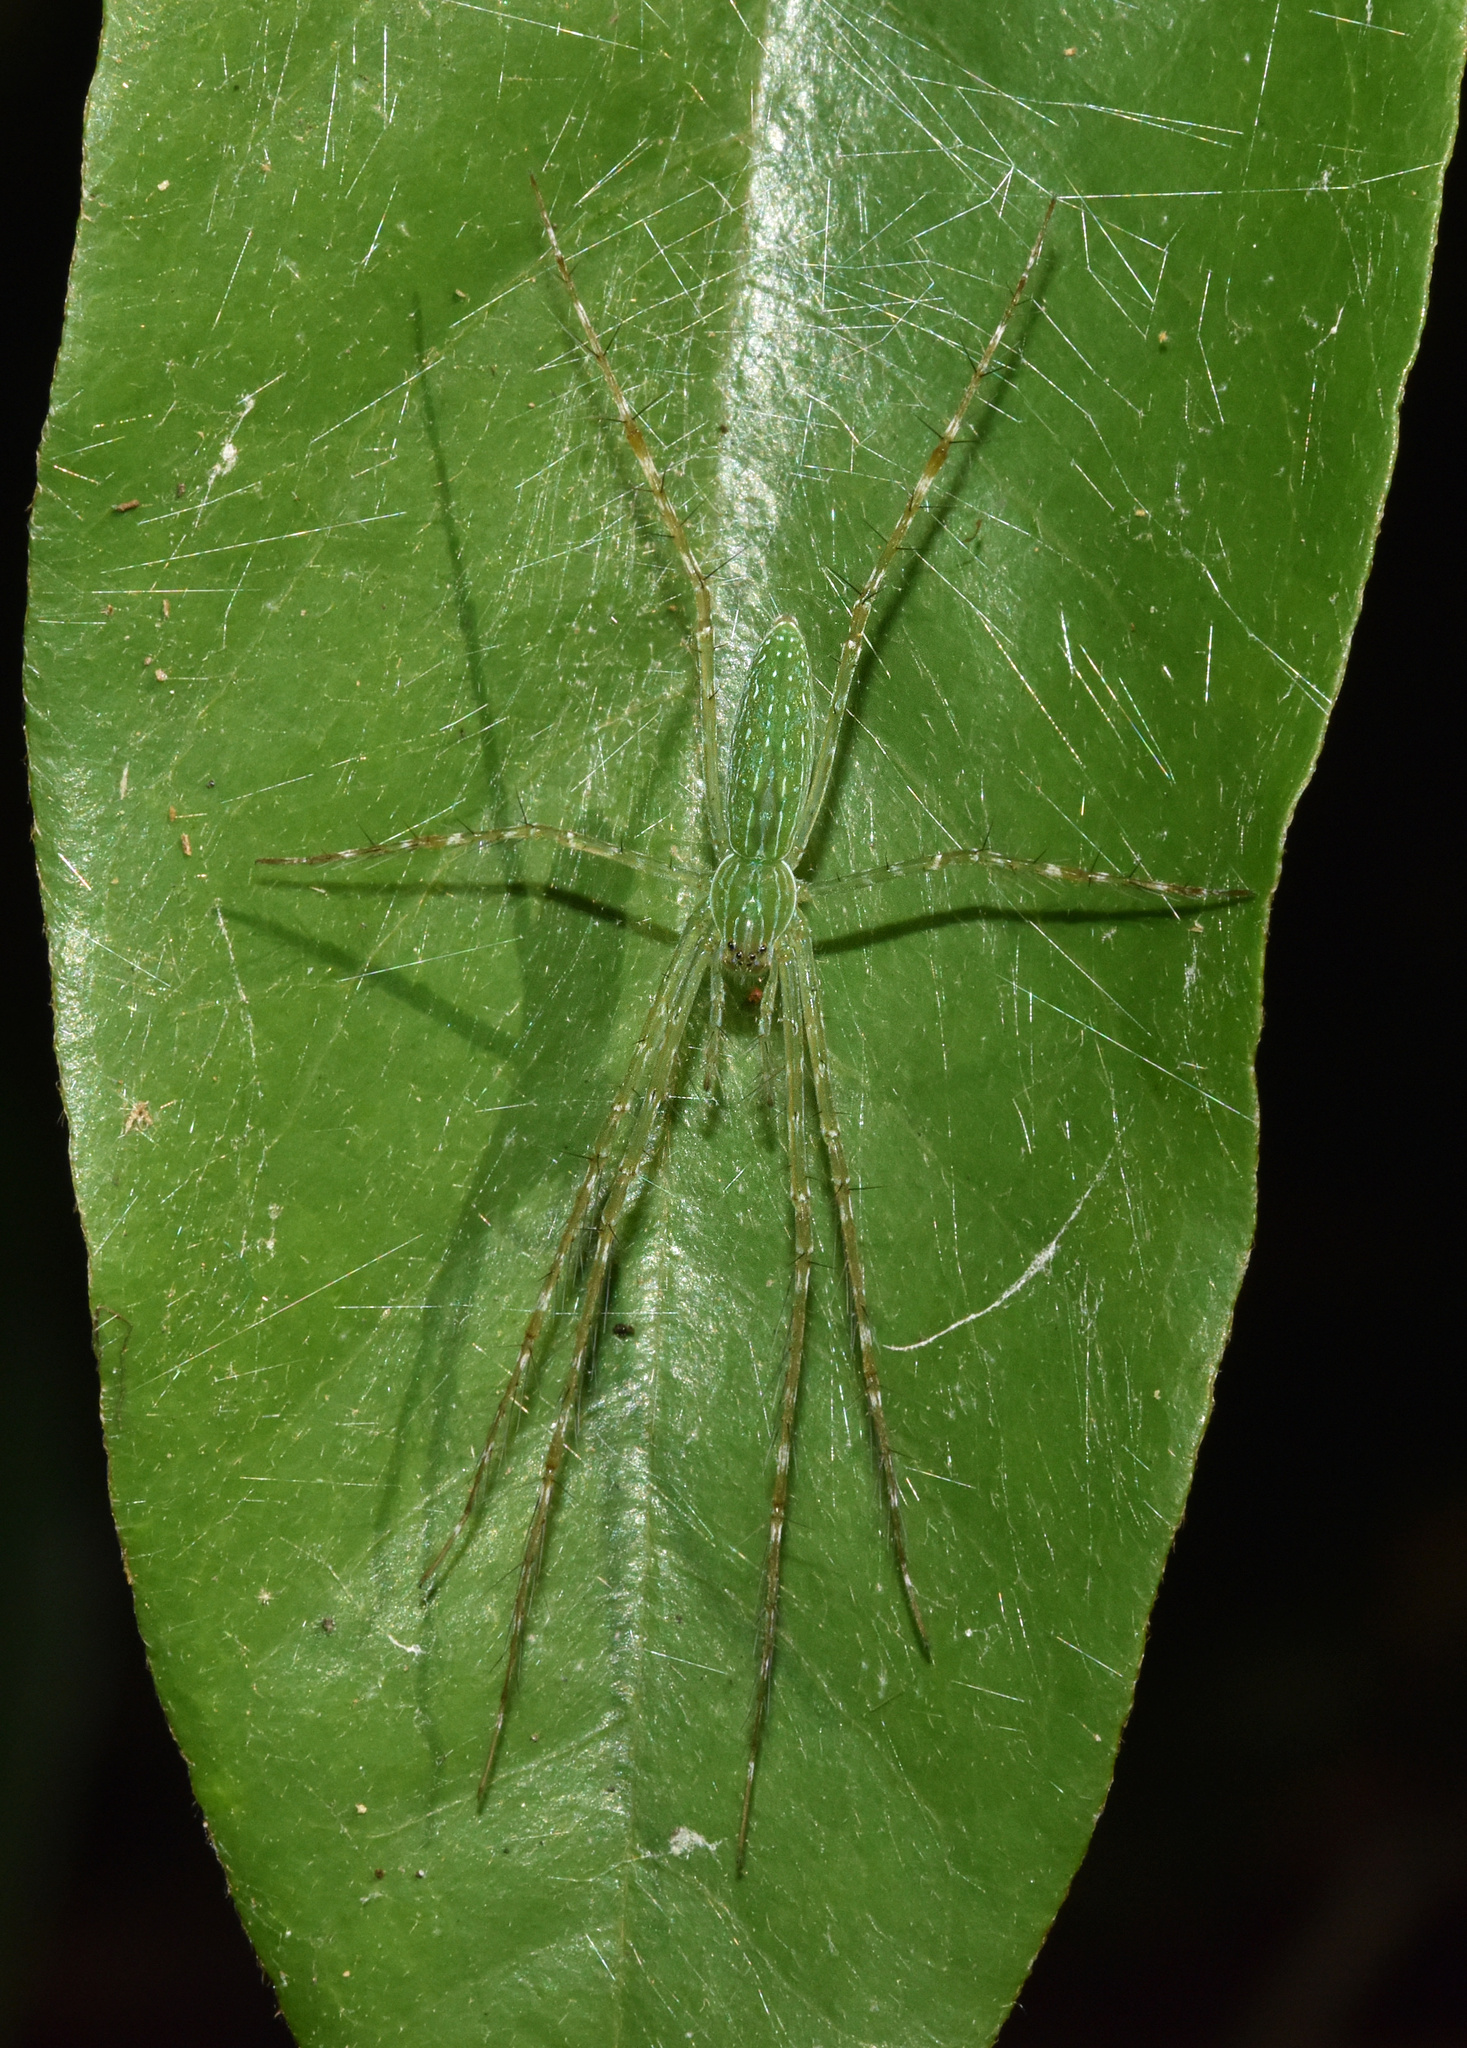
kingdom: Animalia
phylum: Arthropoda
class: Arachnida
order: Araneae
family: Pisauridae
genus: Hygropoda
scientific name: Hygropoda tangana
